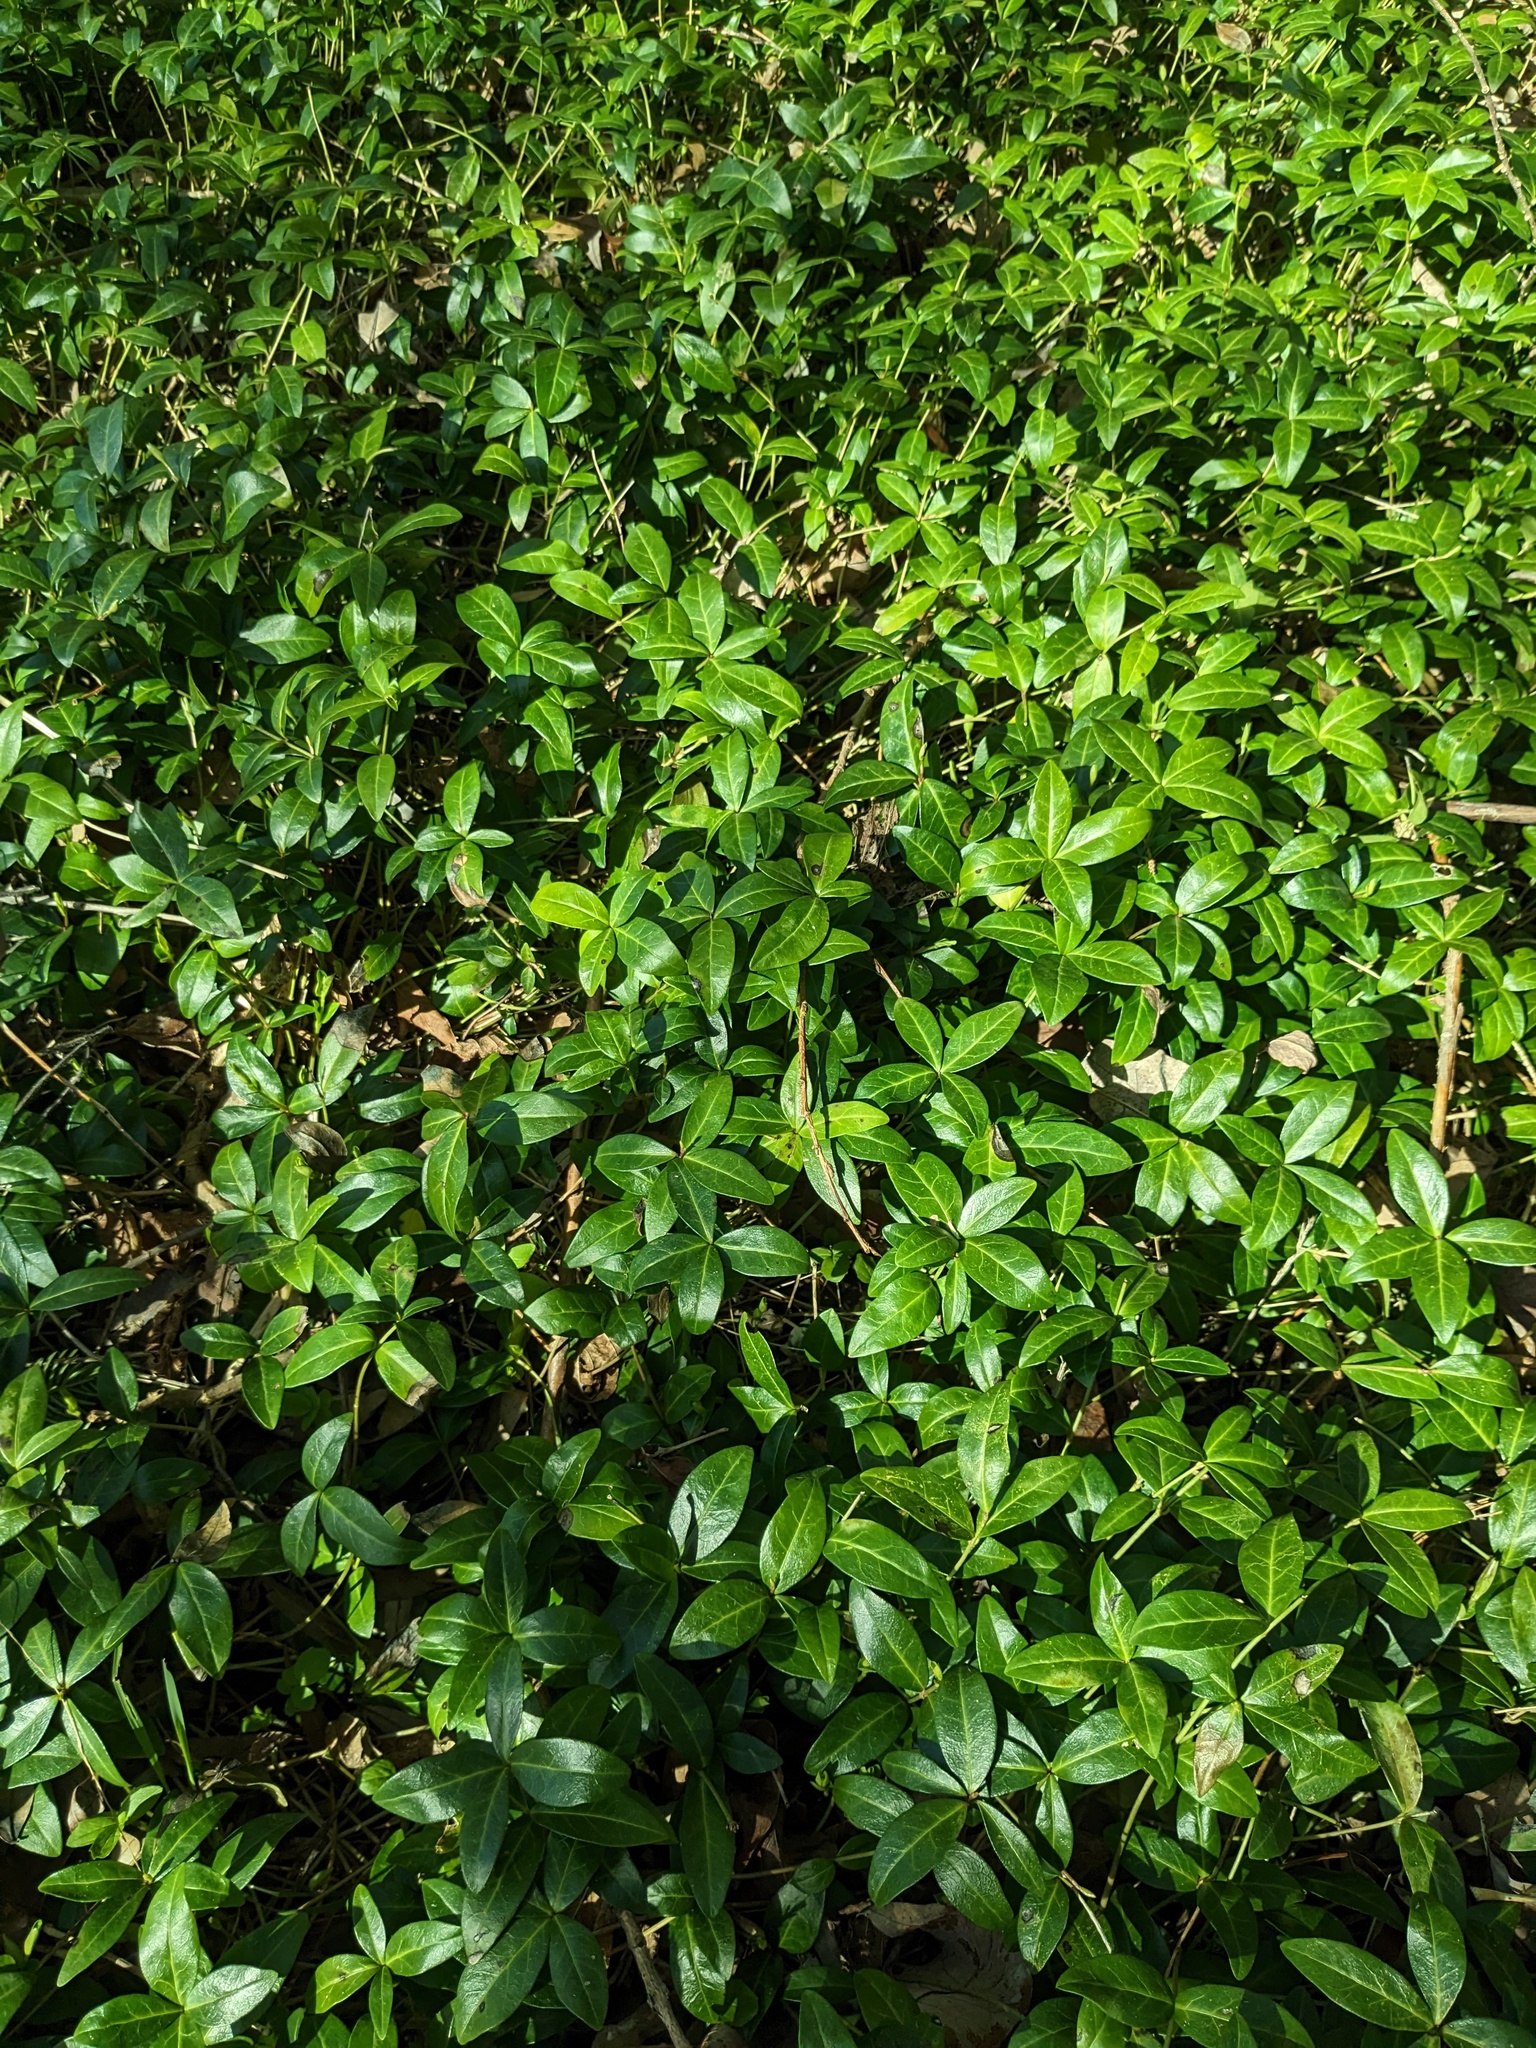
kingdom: Plantae
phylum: Tracheophyta
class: Magnoliopsida
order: Gentianales
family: Apocynaceae
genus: Vinca
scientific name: Vinca minor
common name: Lesser periwinkle
